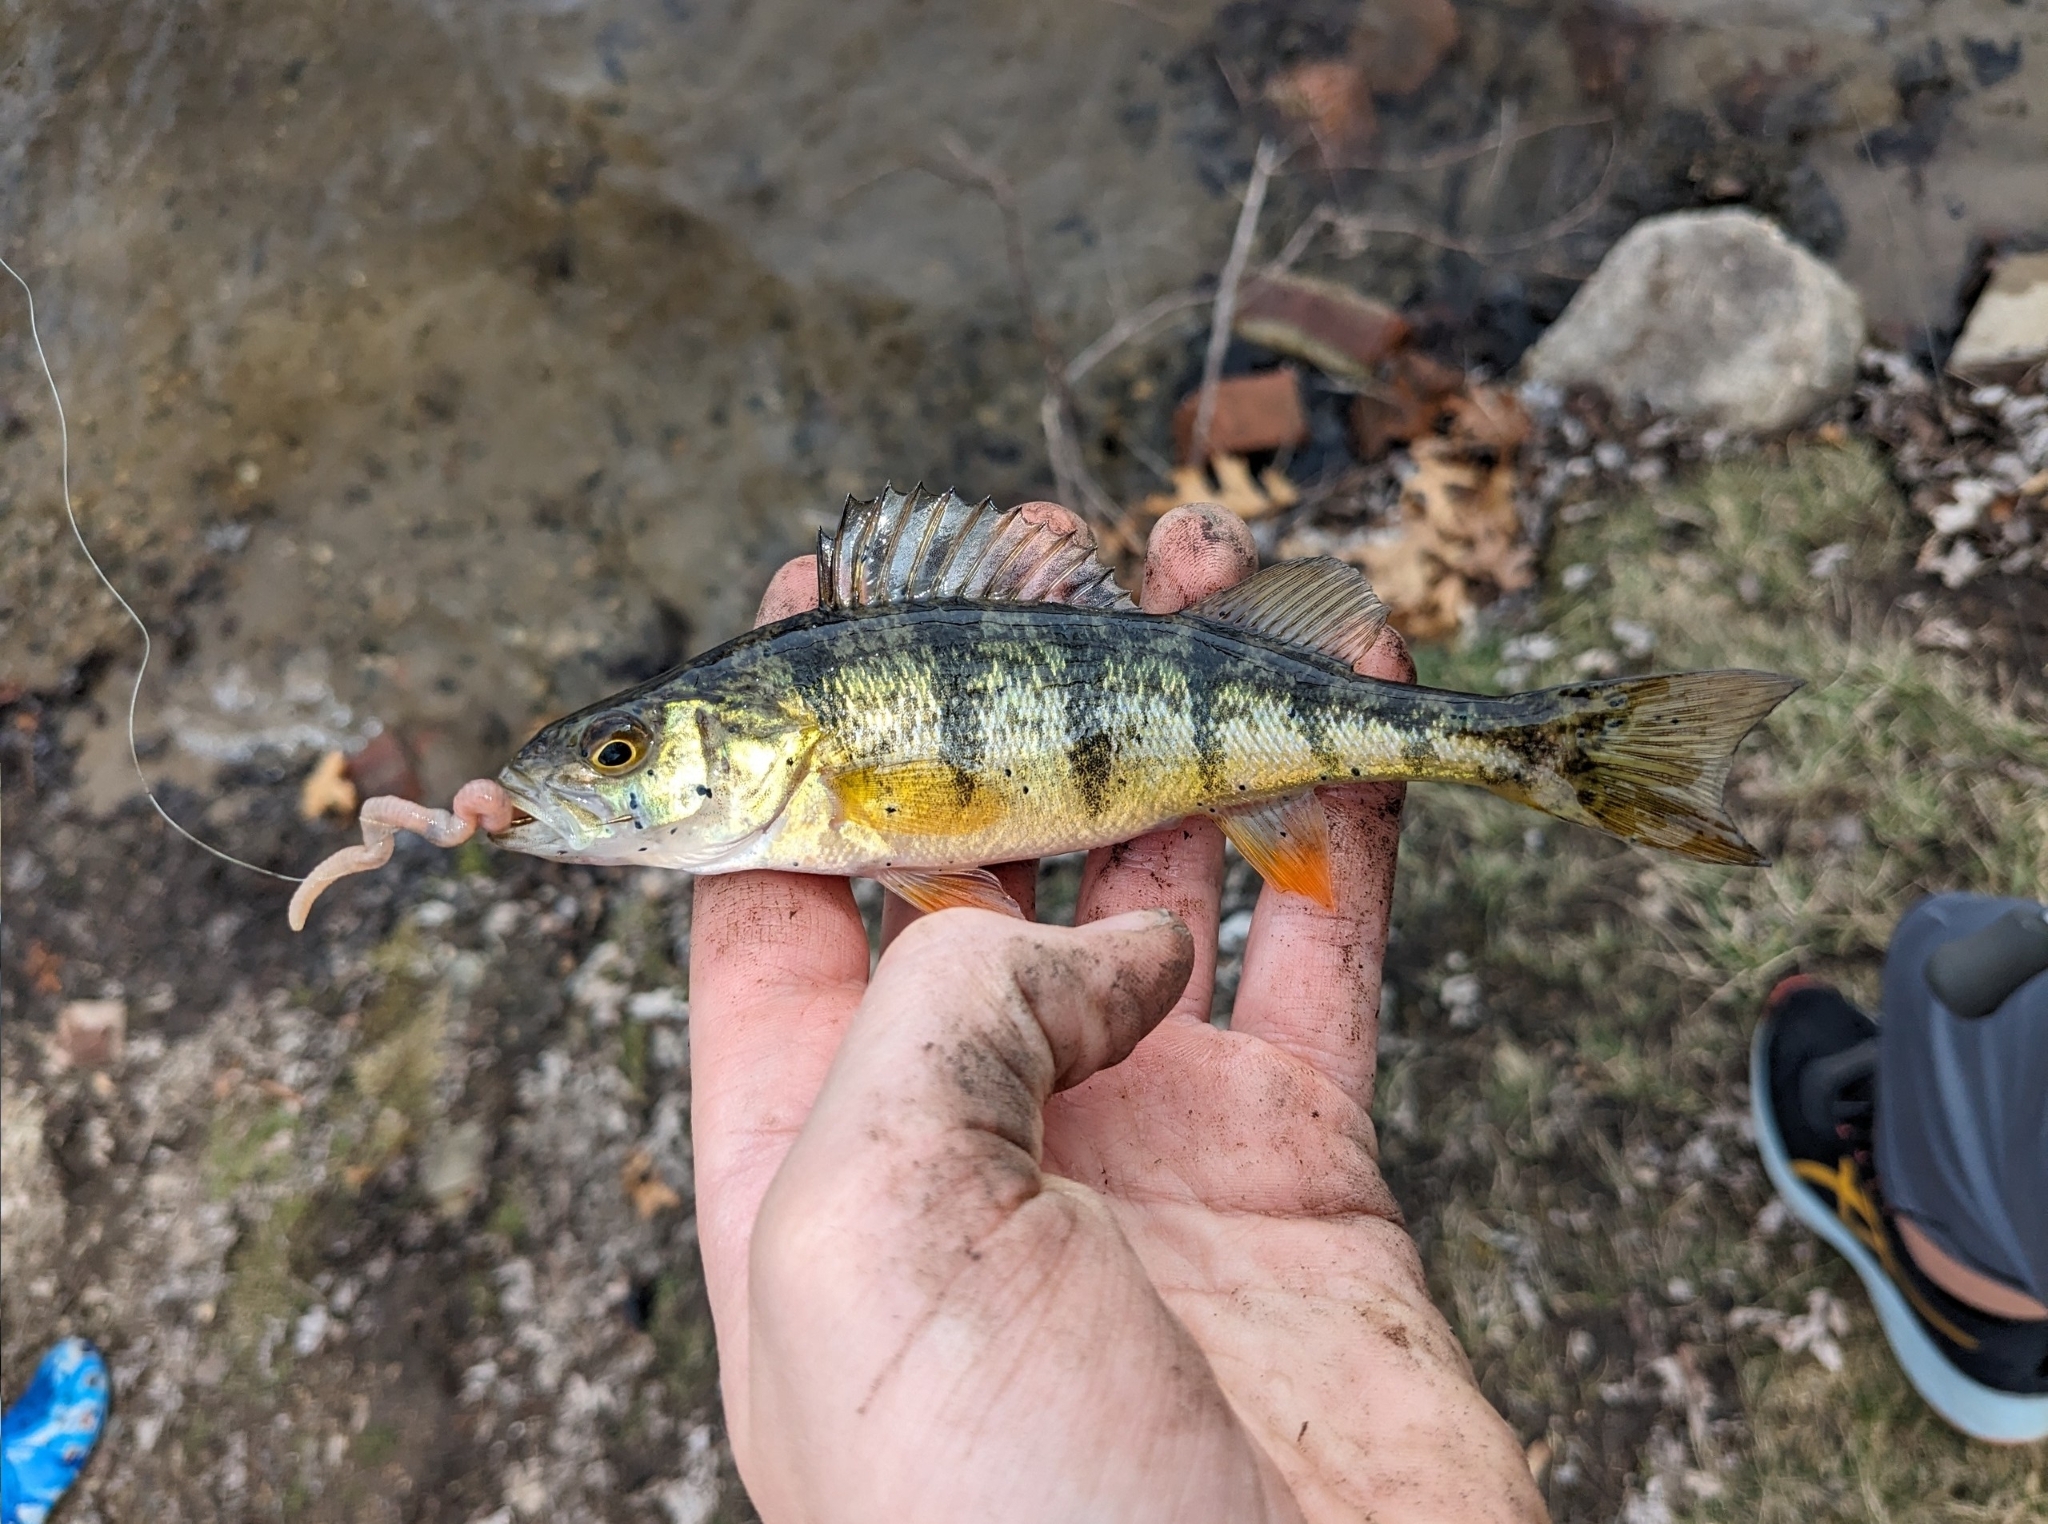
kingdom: Animalia
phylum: Chordata
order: Perciformes
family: Percidae
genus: Perca
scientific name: Perca flavescens
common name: Yellow perch
